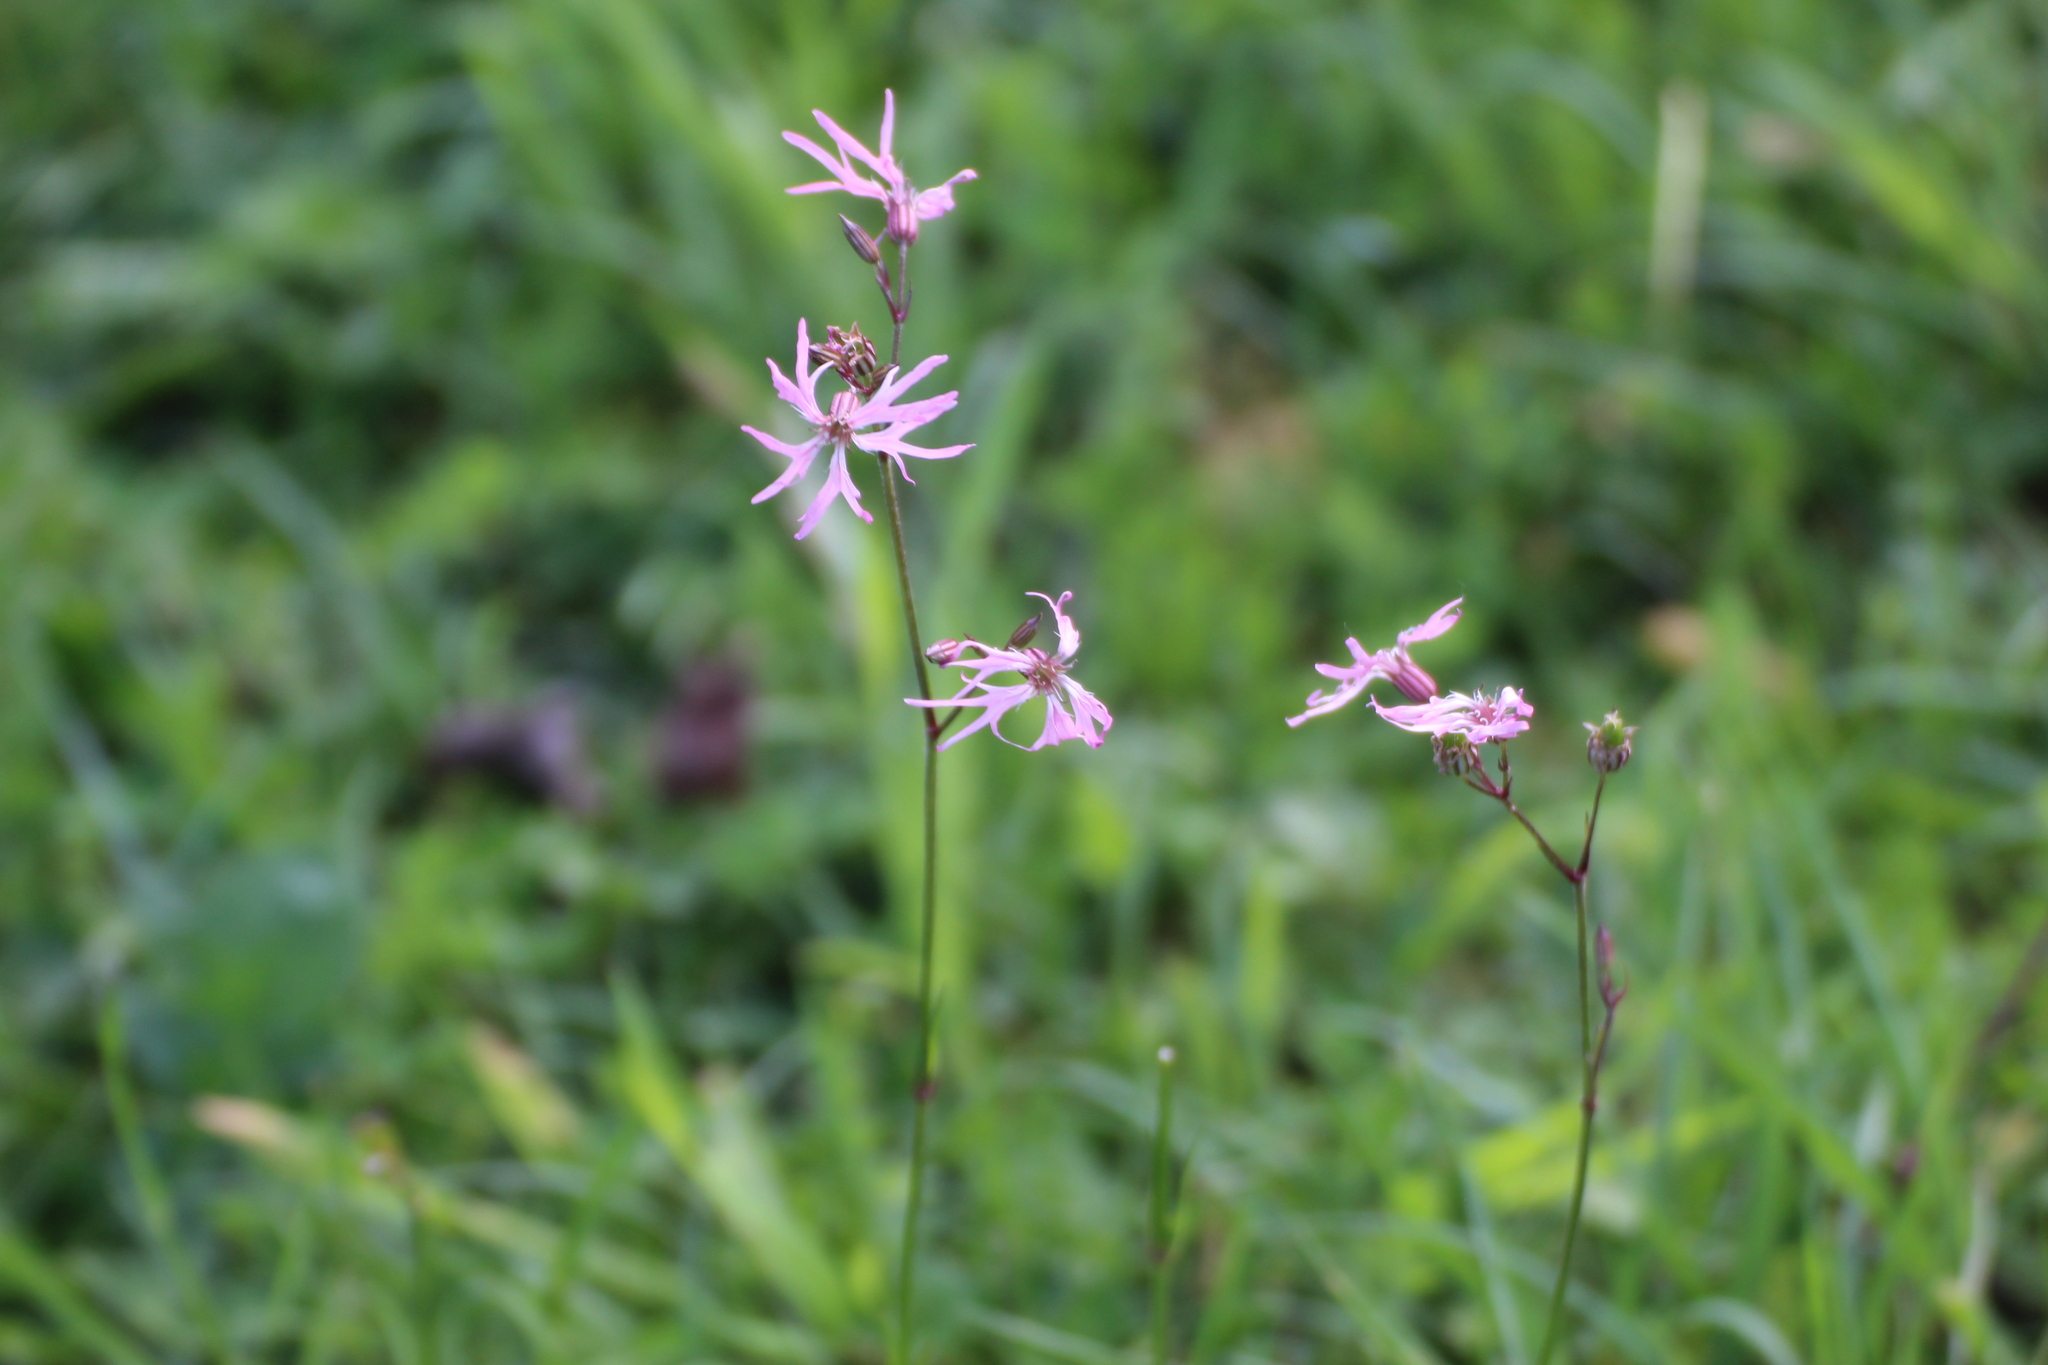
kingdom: Plantae
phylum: Tracheophyta
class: Magnoliopsida
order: Caryophyllales
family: Caryophyllaceae
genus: Silene
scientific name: Silene flos-cuculi
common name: Ragged-robin
